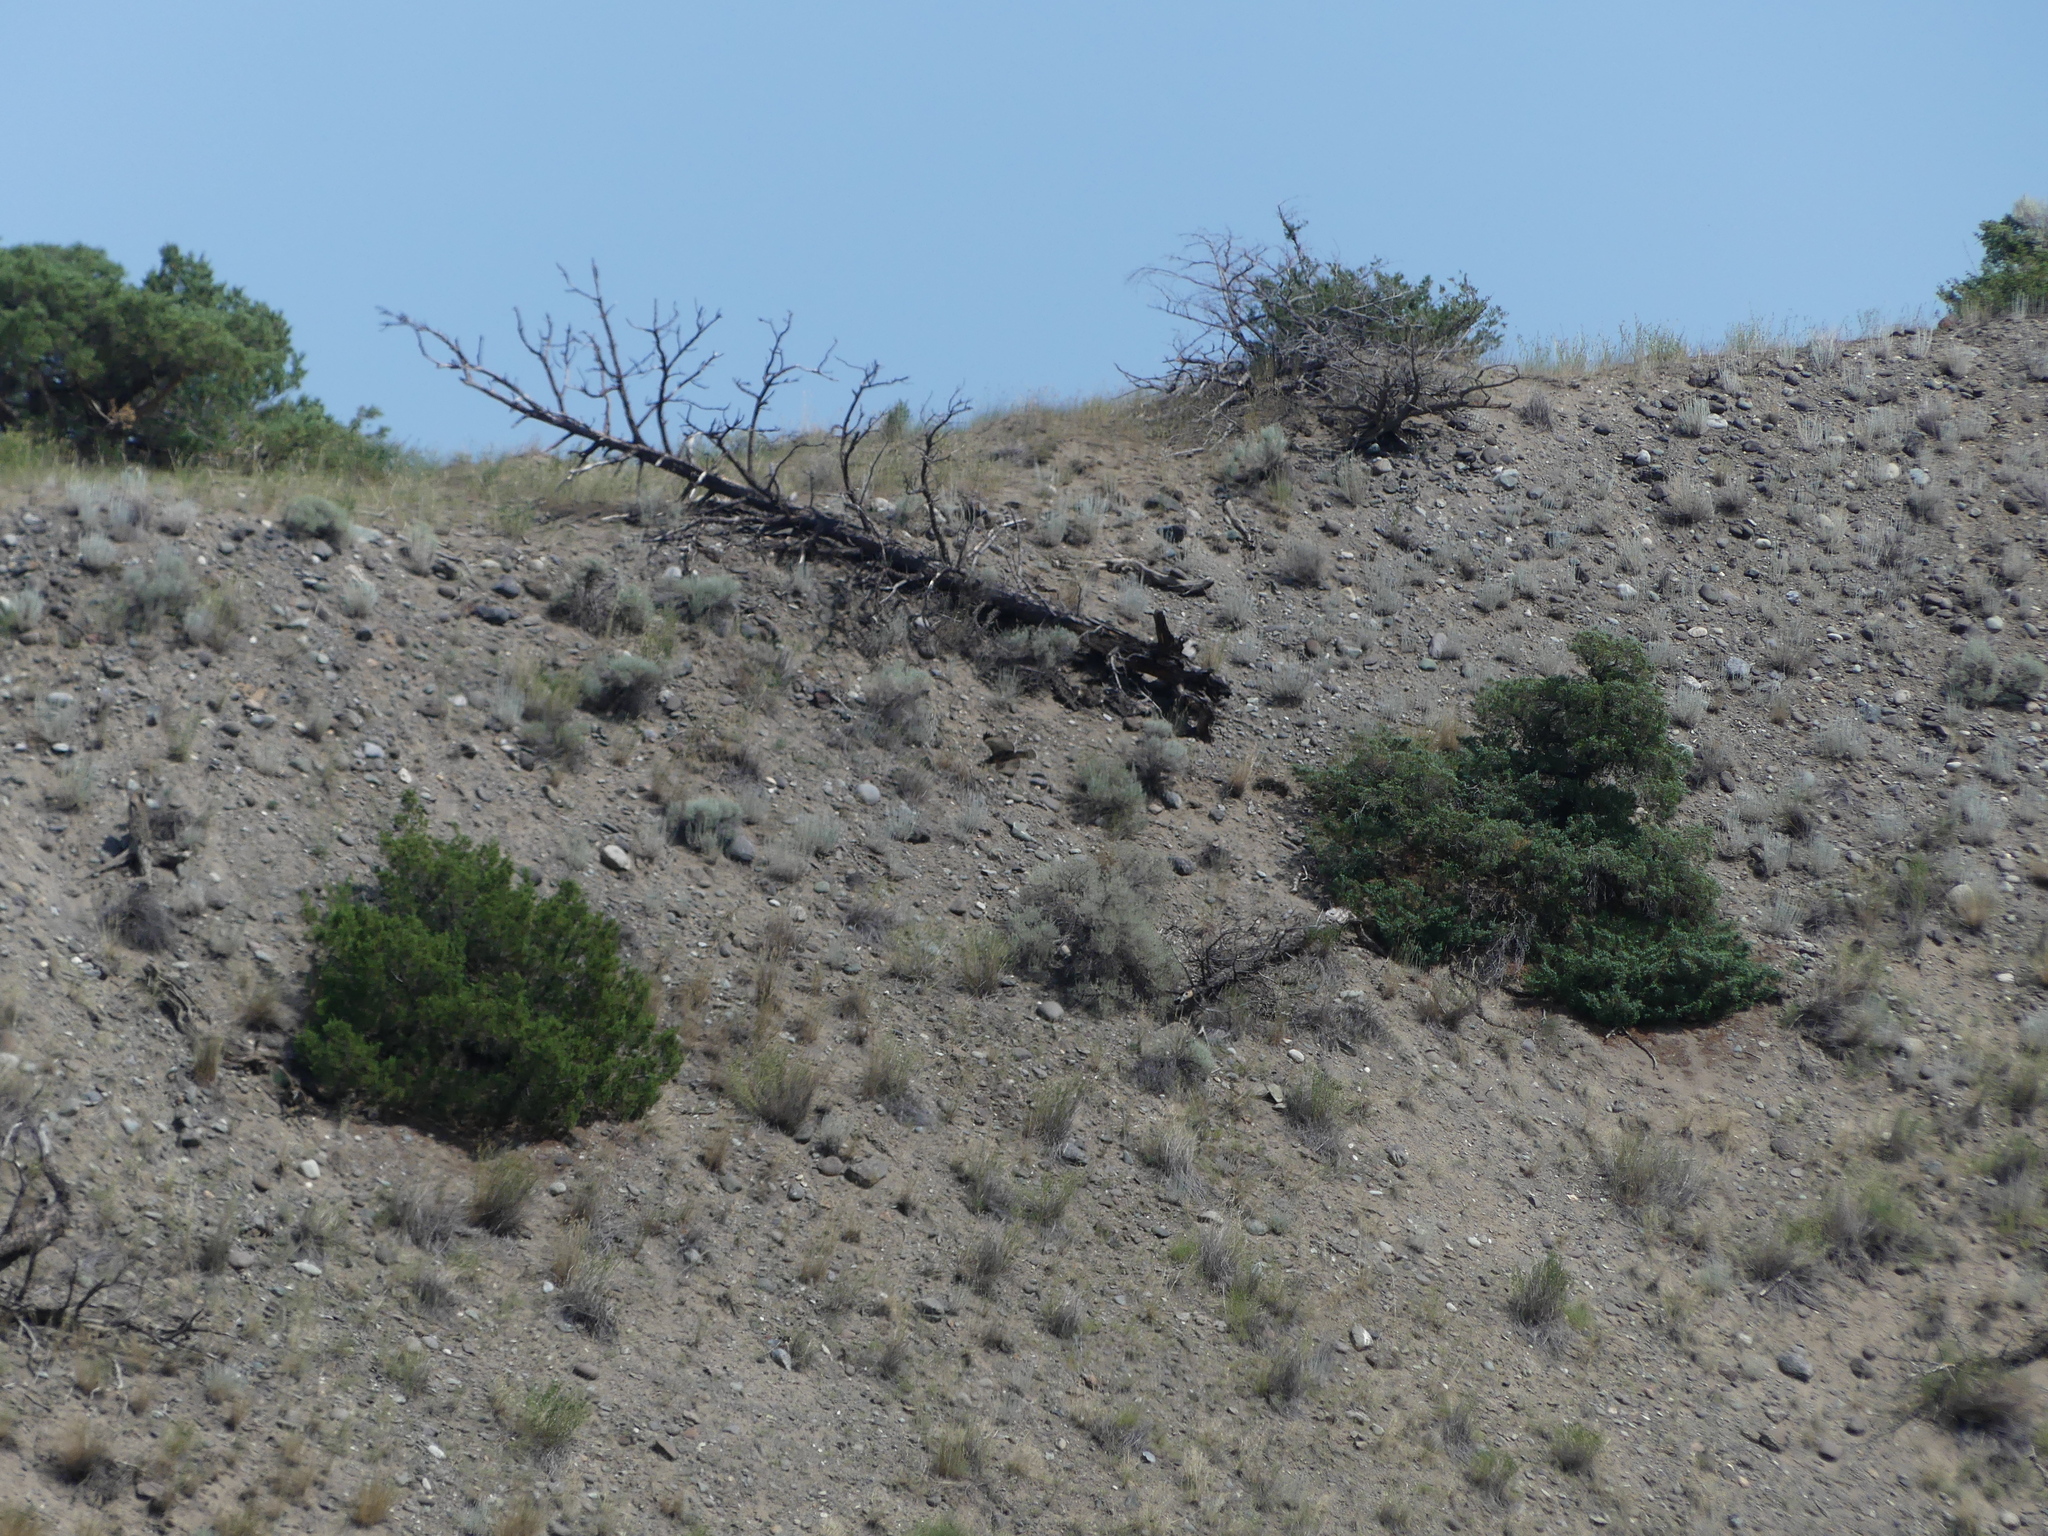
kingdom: Animalia
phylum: Chordata
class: Aves
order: Accipitriformes
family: Accipitridae
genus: Buteo
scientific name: Buteo jamaicensis
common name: Red-tailed hawk
